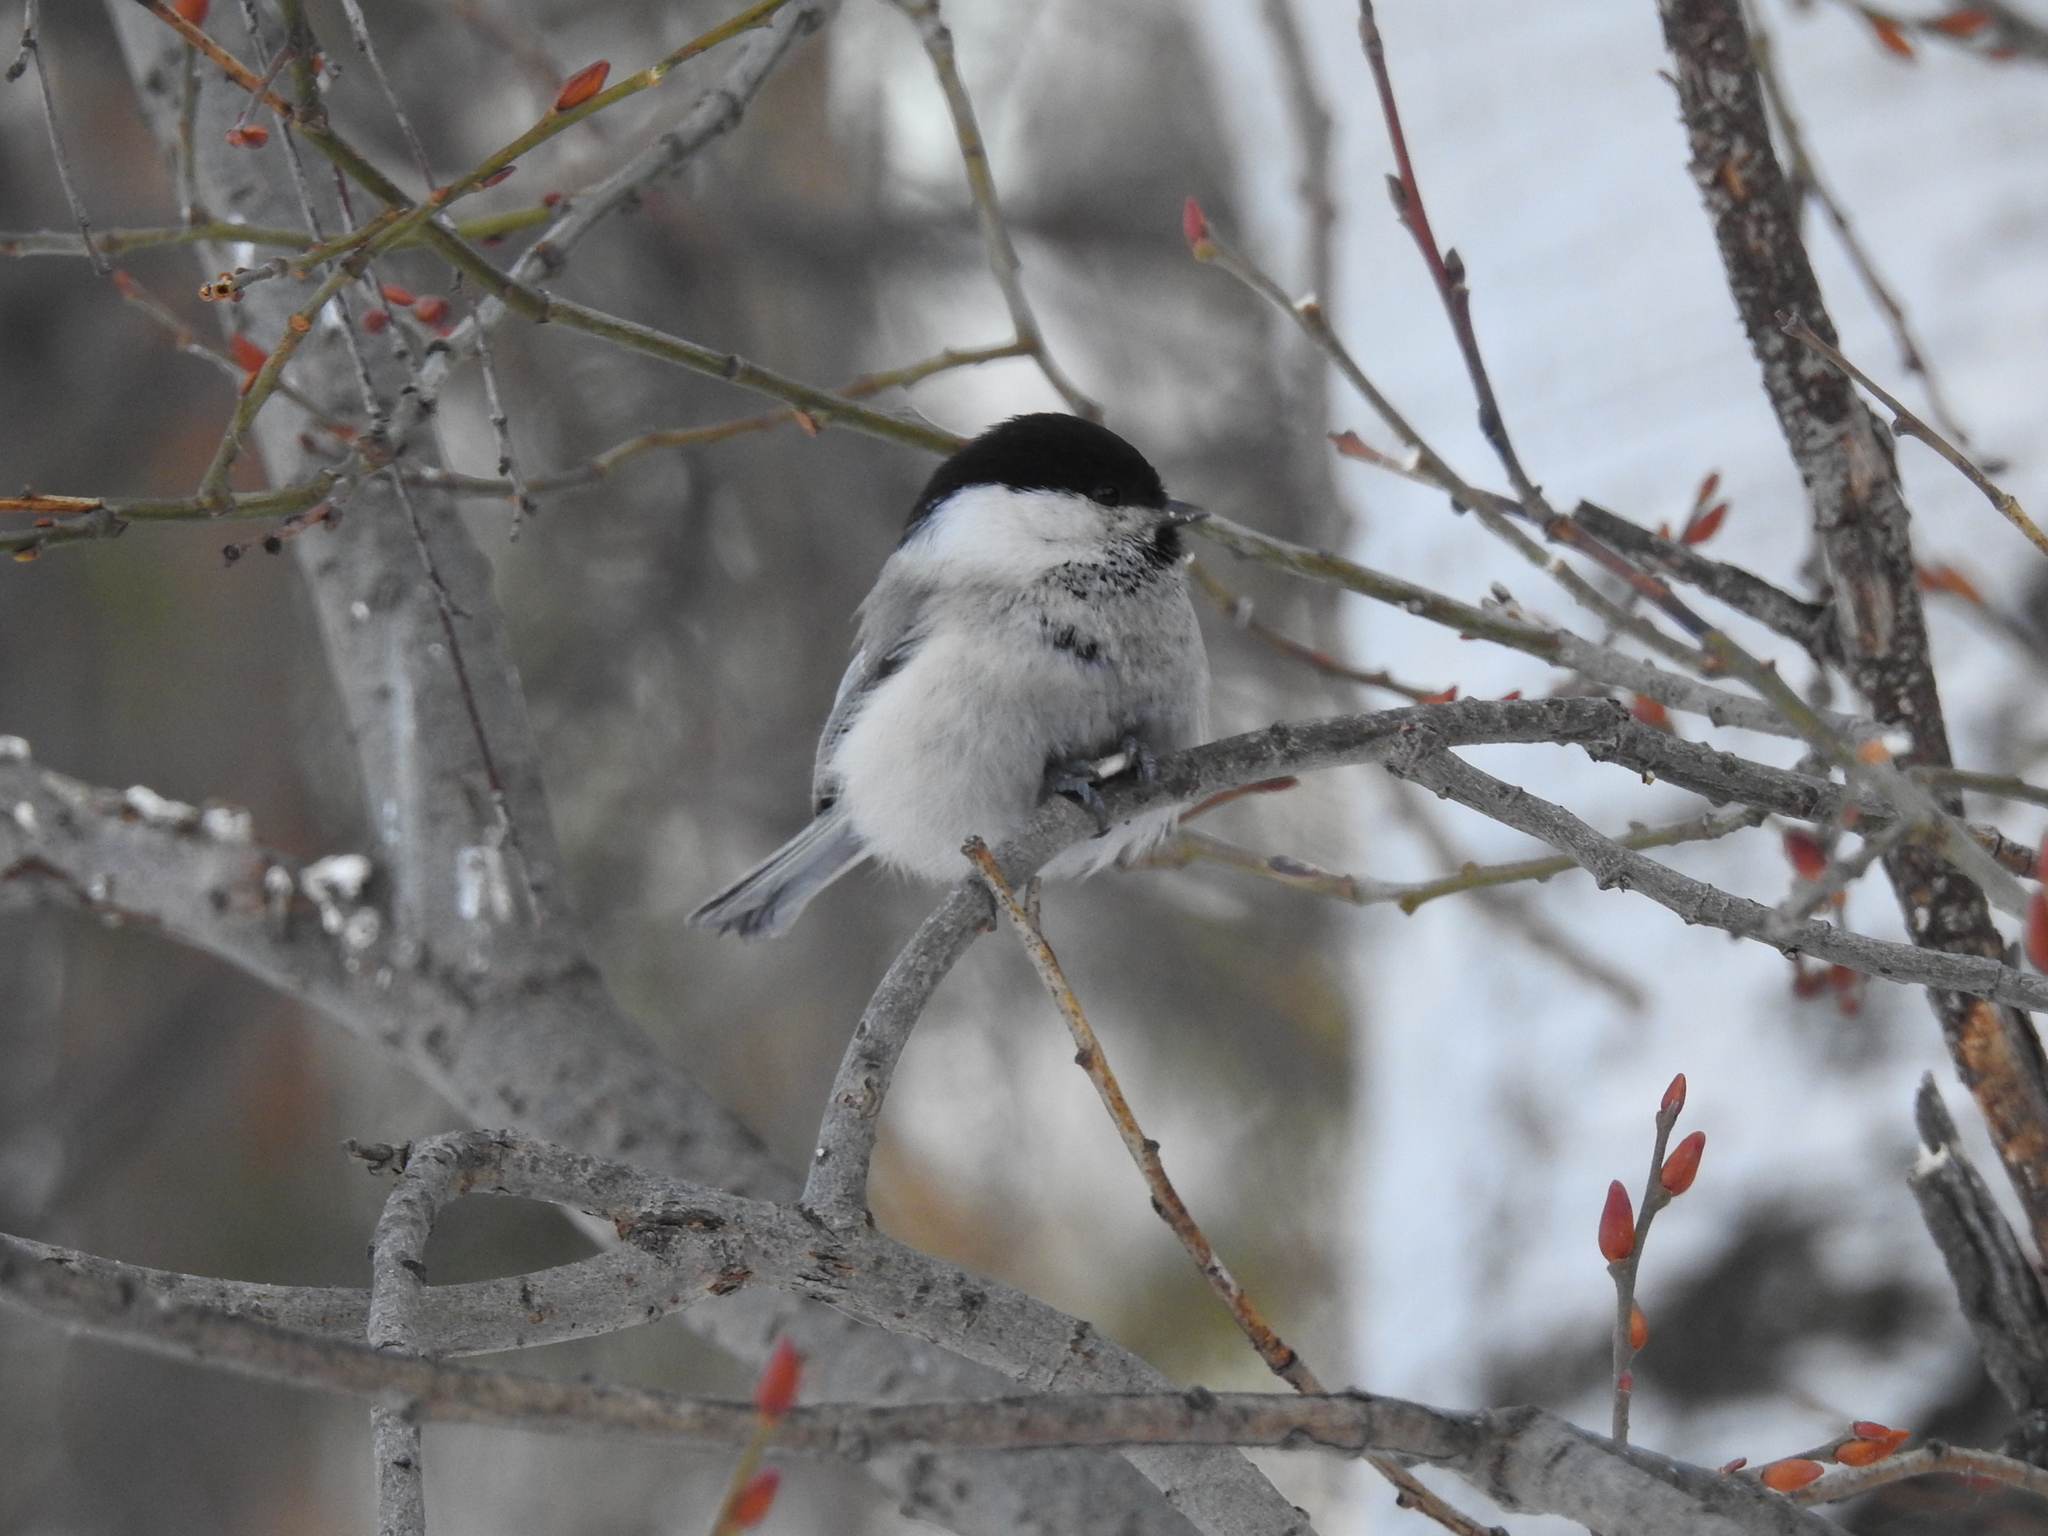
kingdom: Animalia
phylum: Chordata
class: Aves
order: Passeriformes
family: Paridae
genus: Poecile
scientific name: Poecile montanus
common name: Willow tit
